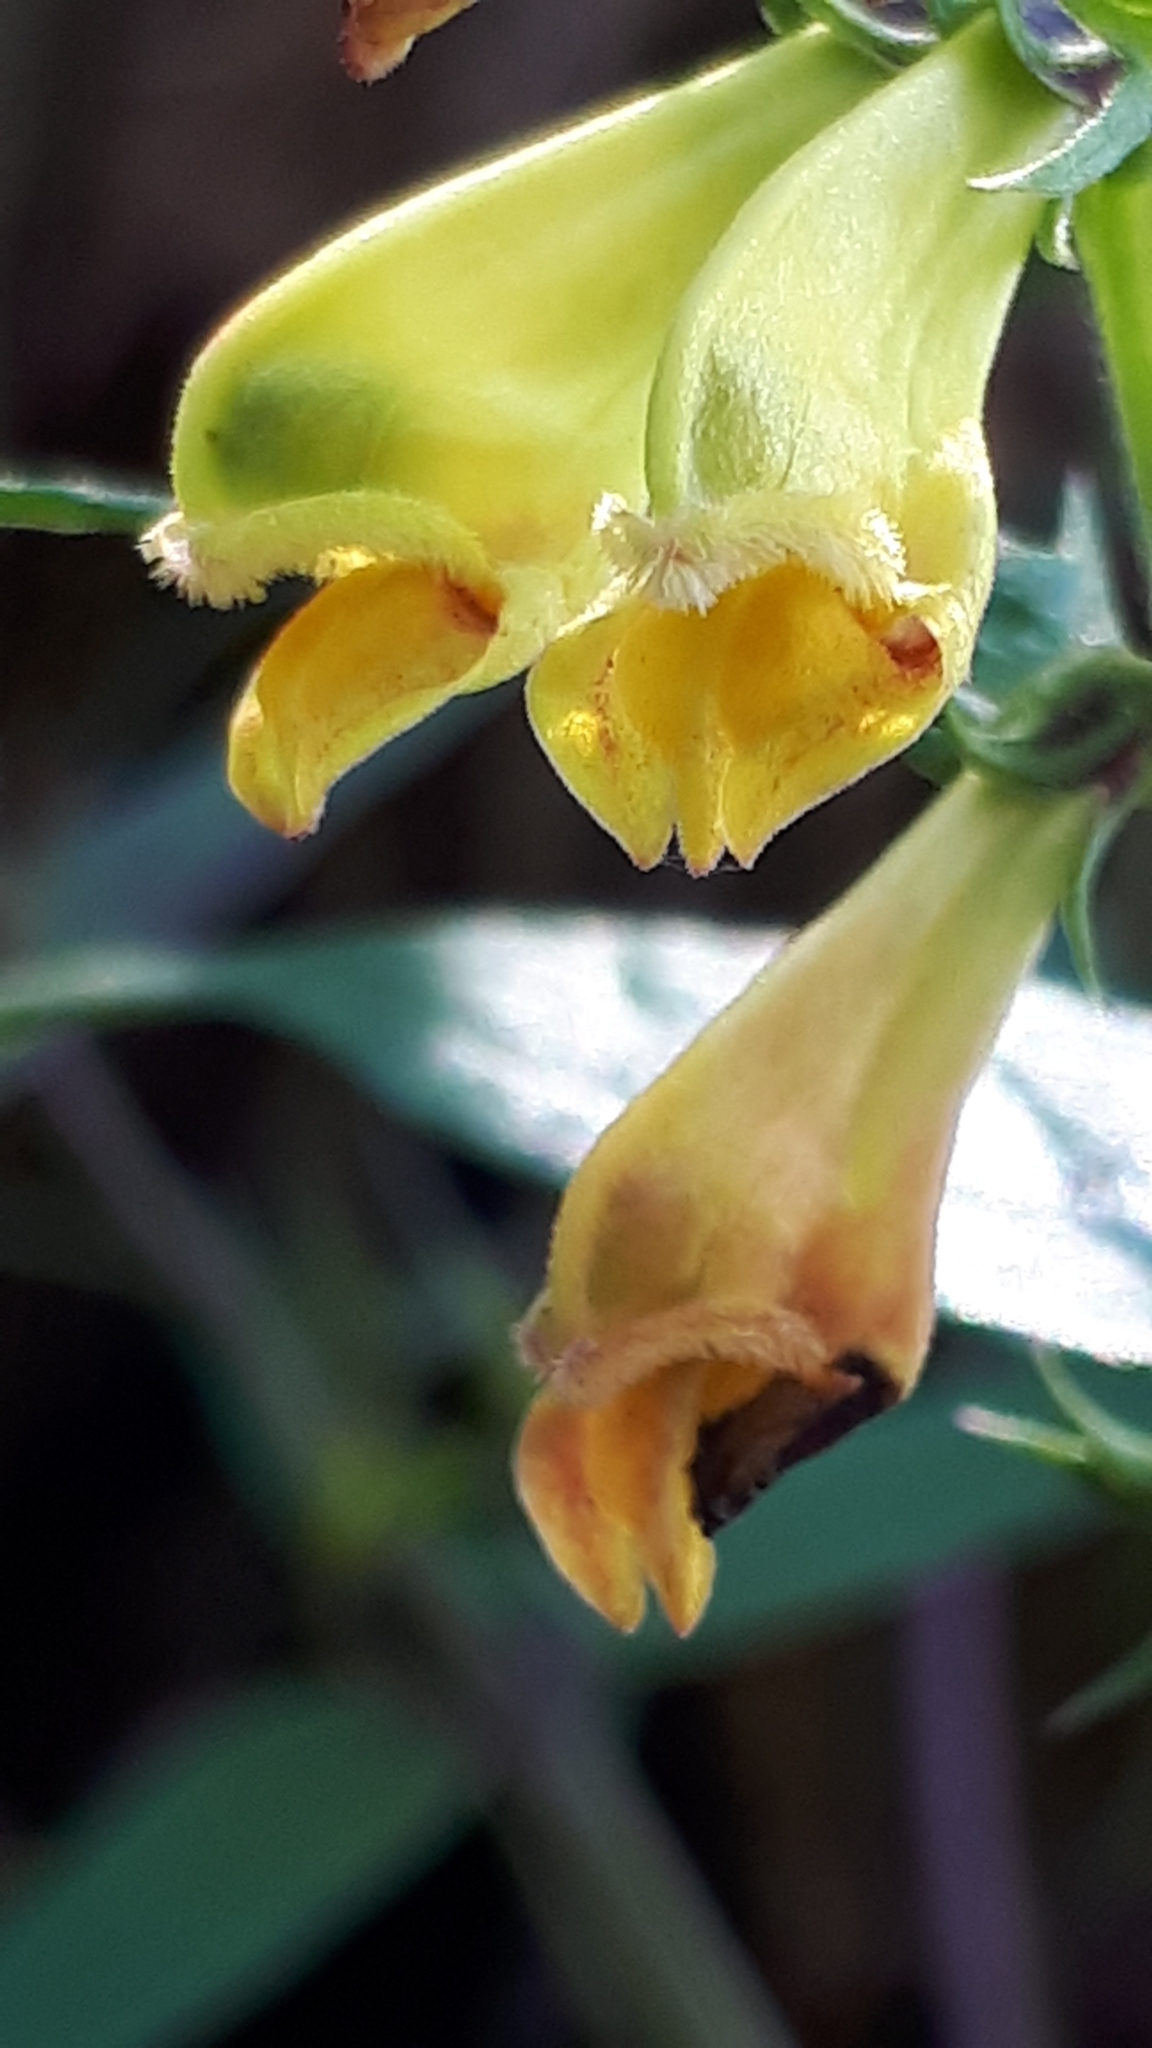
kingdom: Plantae
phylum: Tracheophyta
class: Magnoliopsida
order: Lamiales
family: Orobanchaceae
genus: Melampyrum
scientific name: Melampyrum pratense
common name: Common cow-wheat
